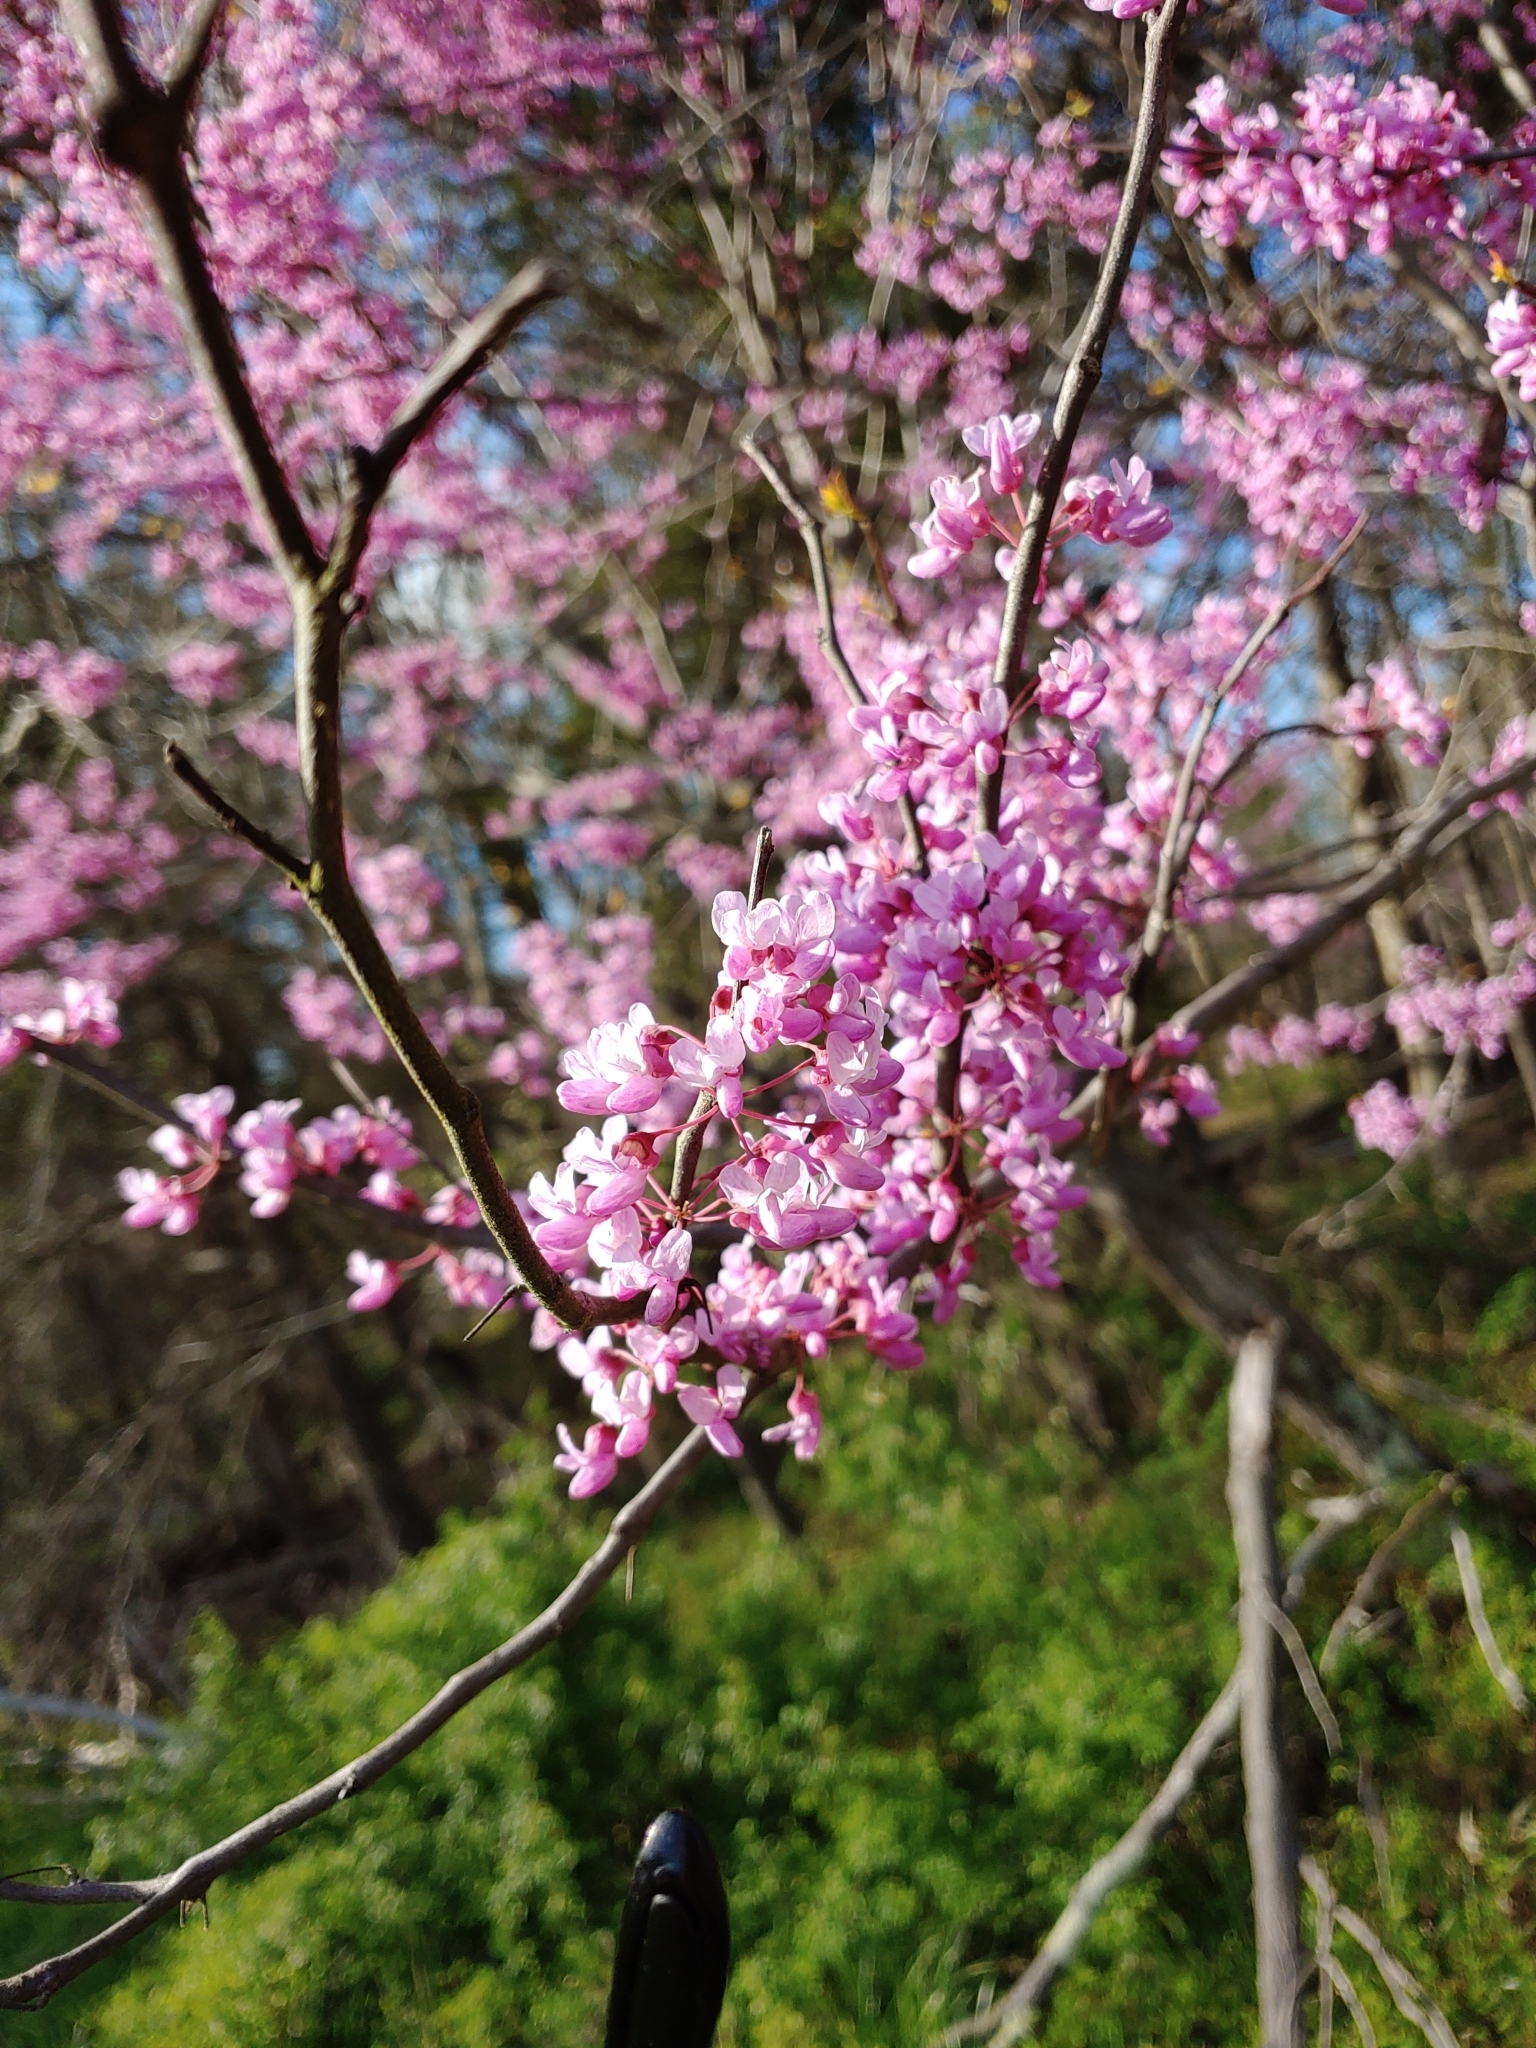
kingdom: Plantae
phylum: Tracheophyta
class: Magnoliopsida
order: Fabales
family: Fabaceae
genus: Cercis
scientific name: Cercis canadensis
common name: Eastern redbud
